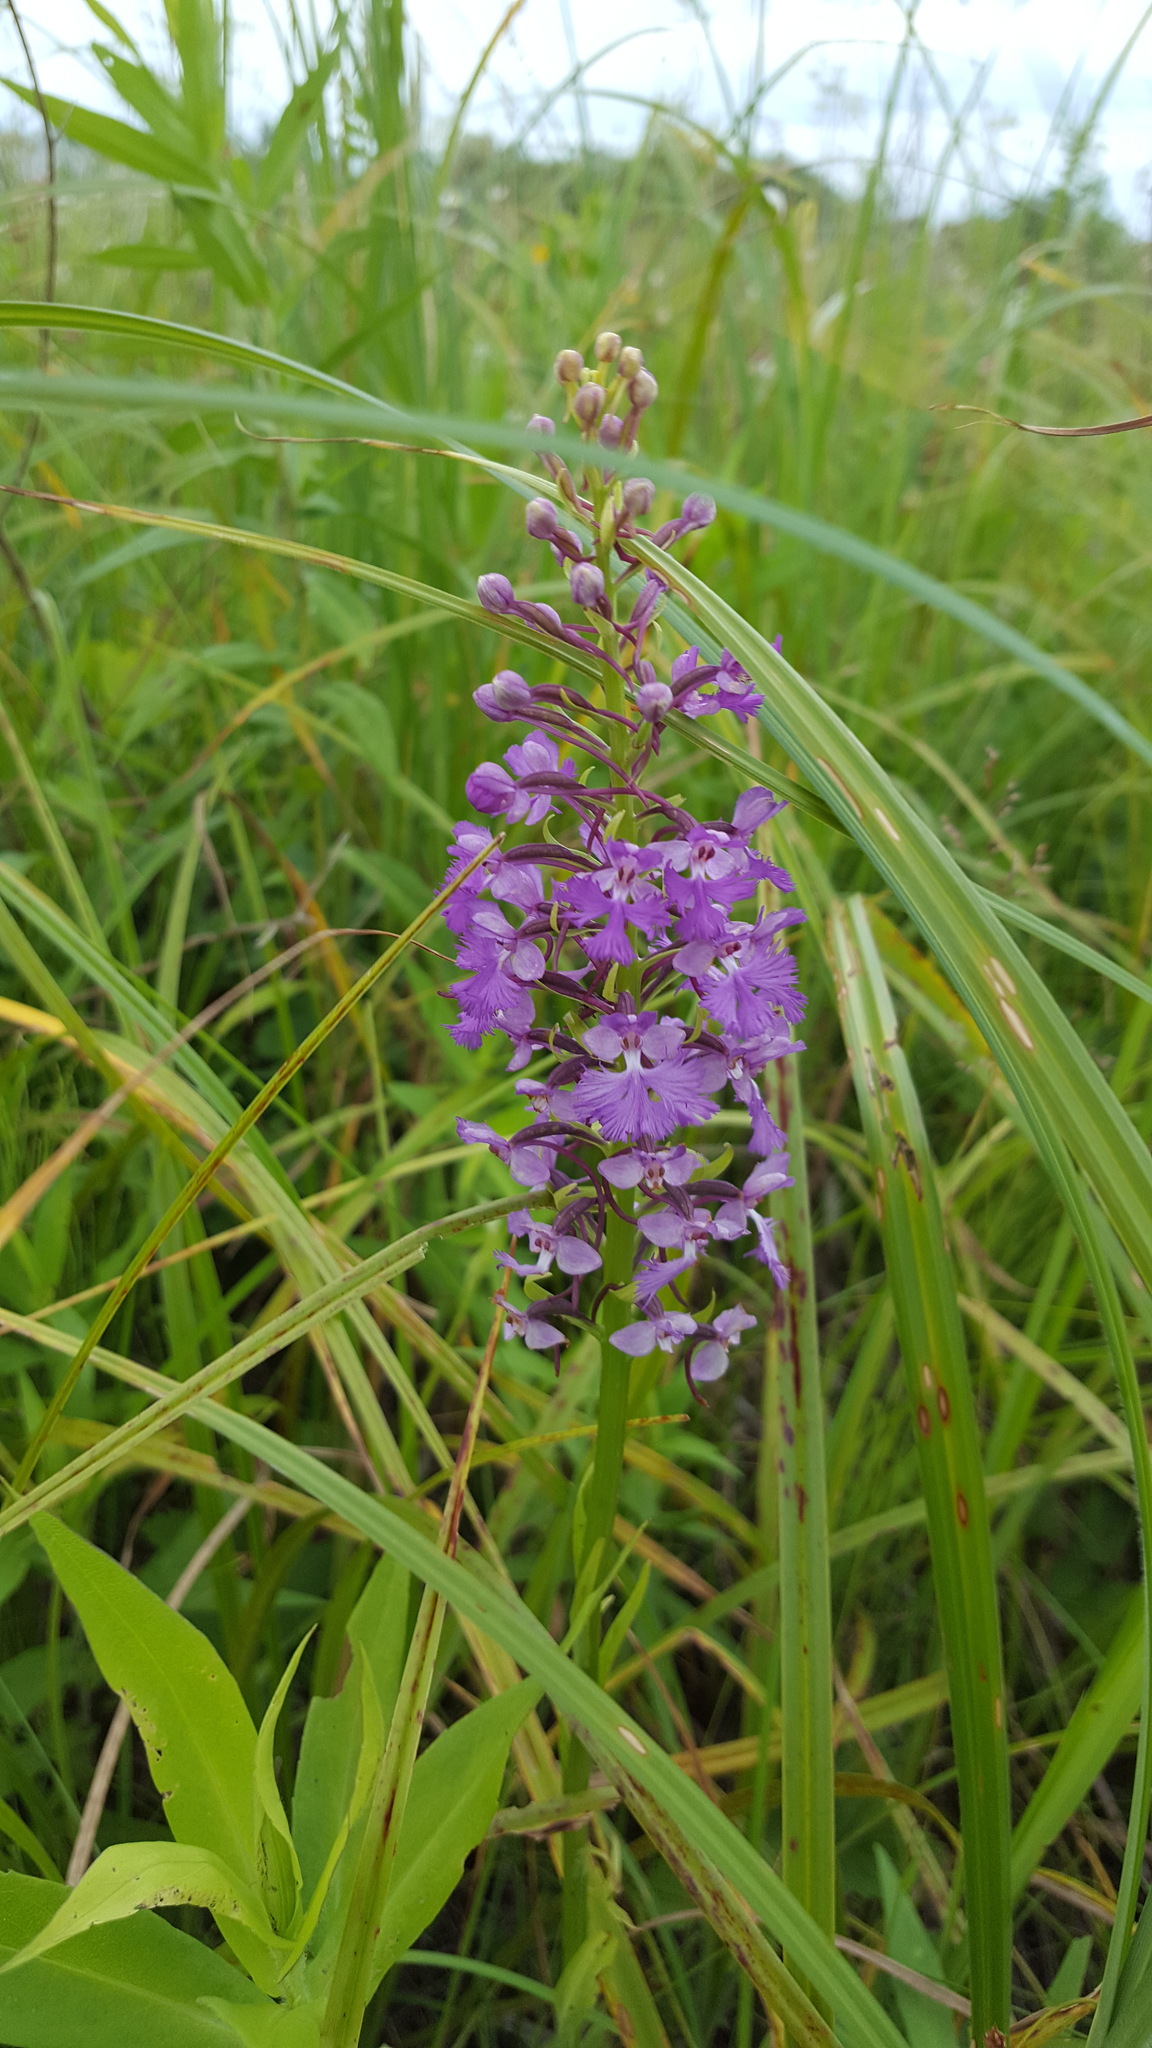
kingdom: Plantae
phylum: Tracheophyta
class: Liliopsida
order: Asparagales
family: Orchidaceae
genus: Platanthera
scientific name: Platanthera psycodes
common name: Lesser purple fringed orchid
